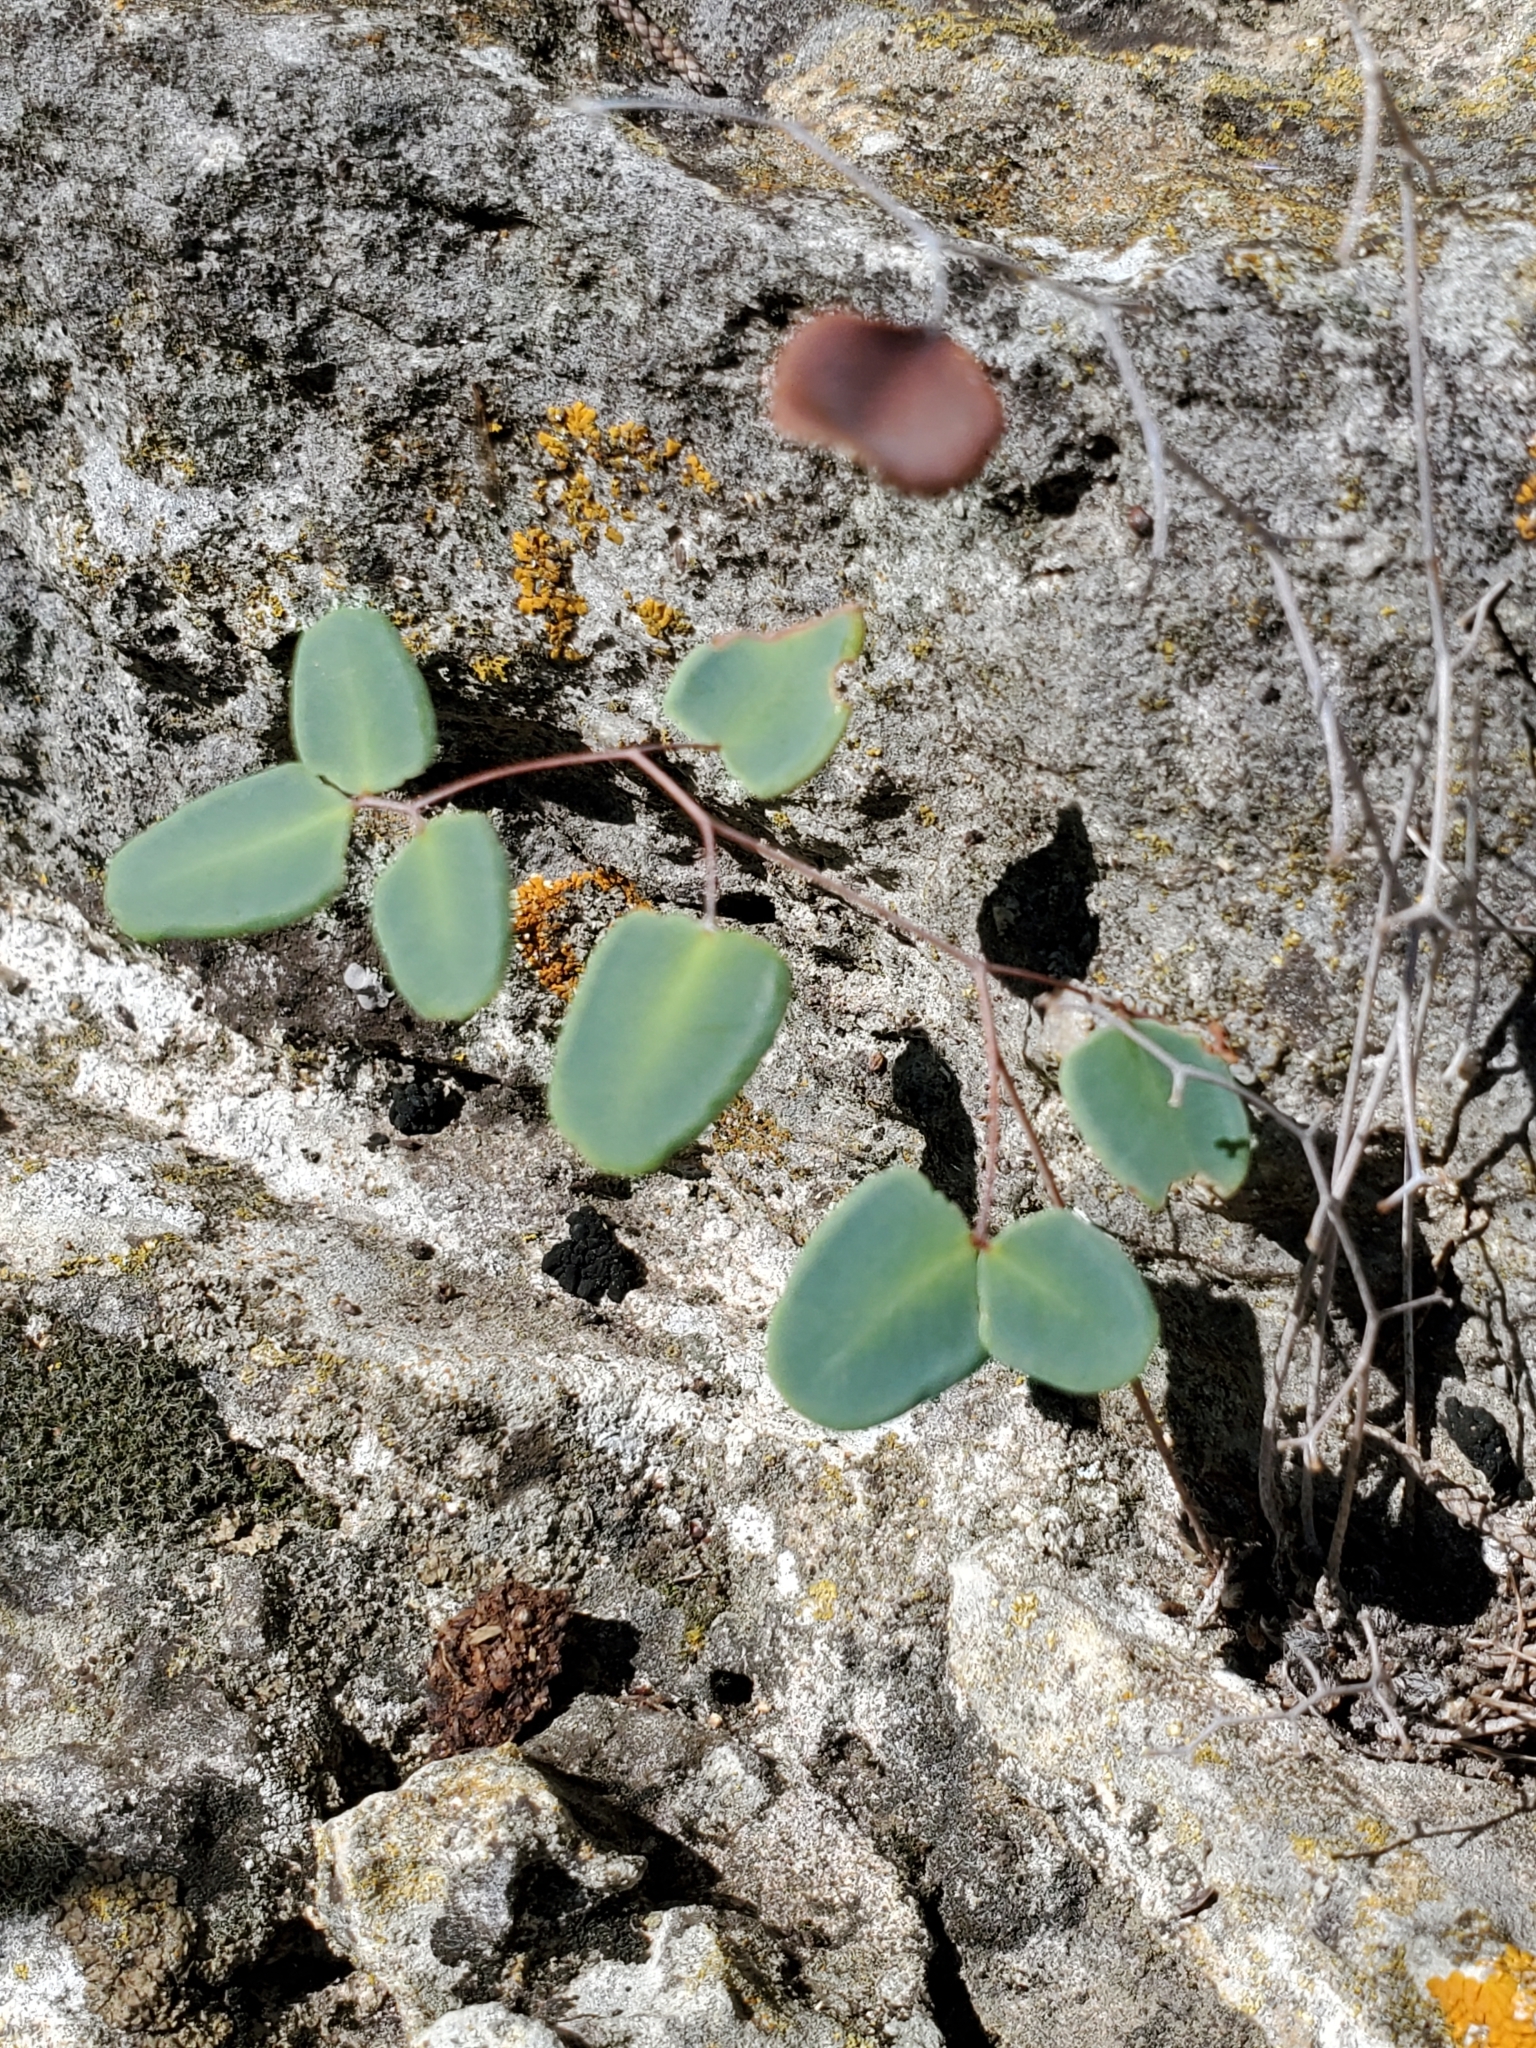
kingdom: Plantae
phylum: Tracheophyta
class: Polypodiopsida
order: Polypodiales
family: Pteridaceae
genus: Pellaea
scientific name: Pellaea ovata
